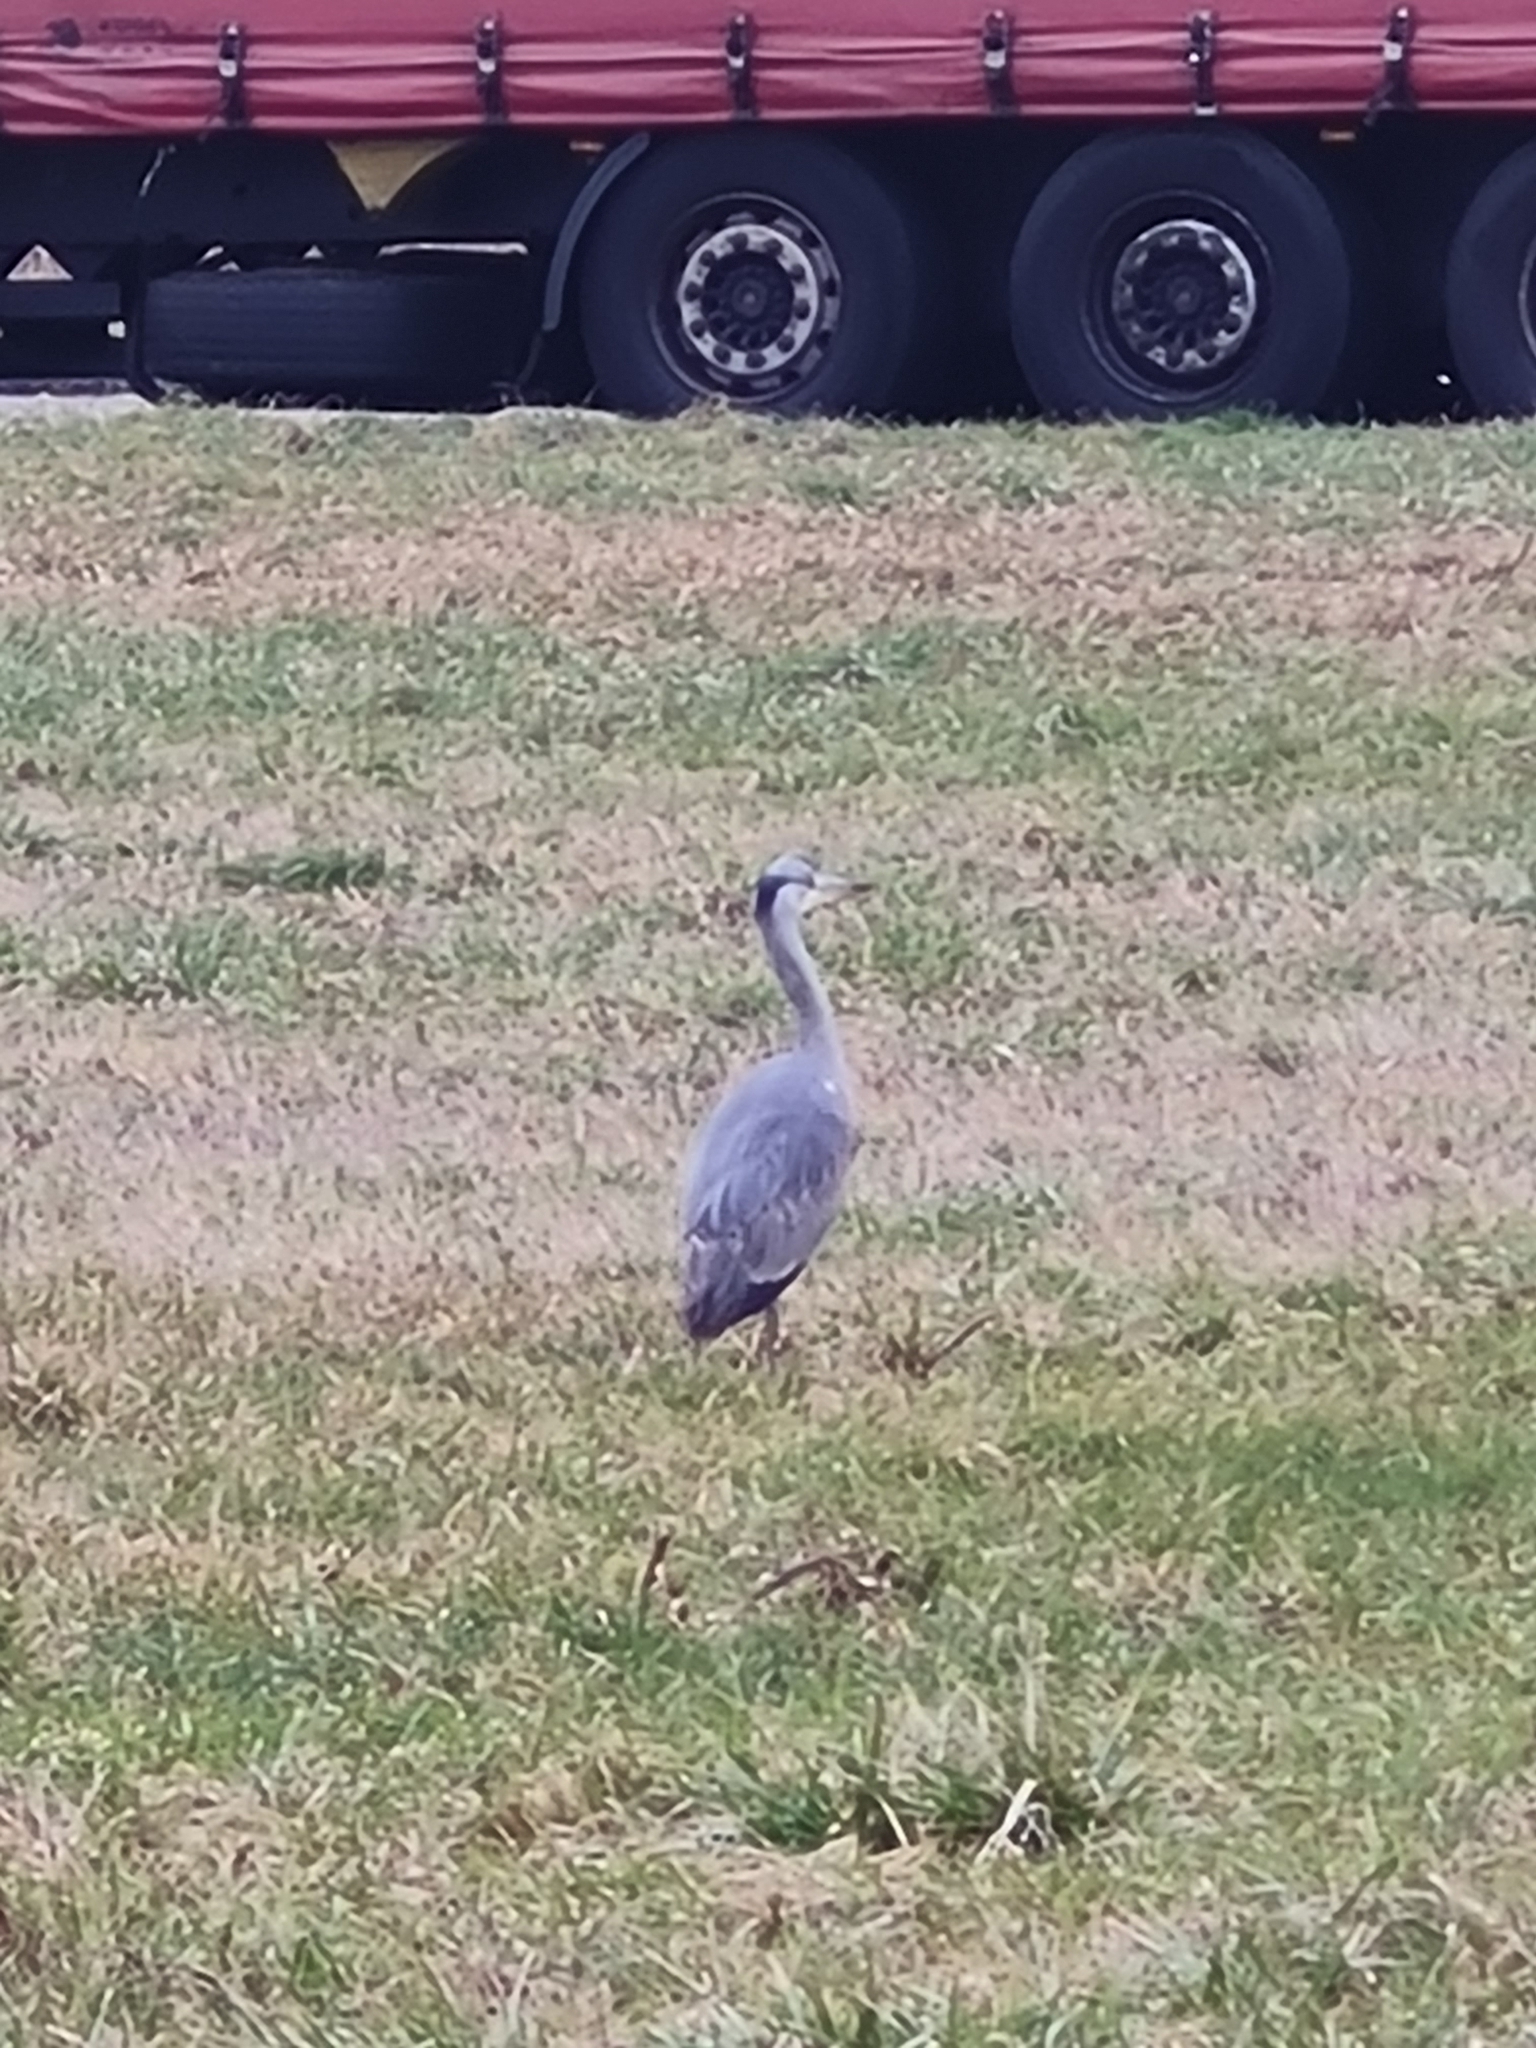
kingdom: Animalia
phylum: Chordata
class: Aves
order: Pelecaniformes
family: Ardeidae
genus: Ardea
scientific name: Ardea cinerea
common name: Grey heron
